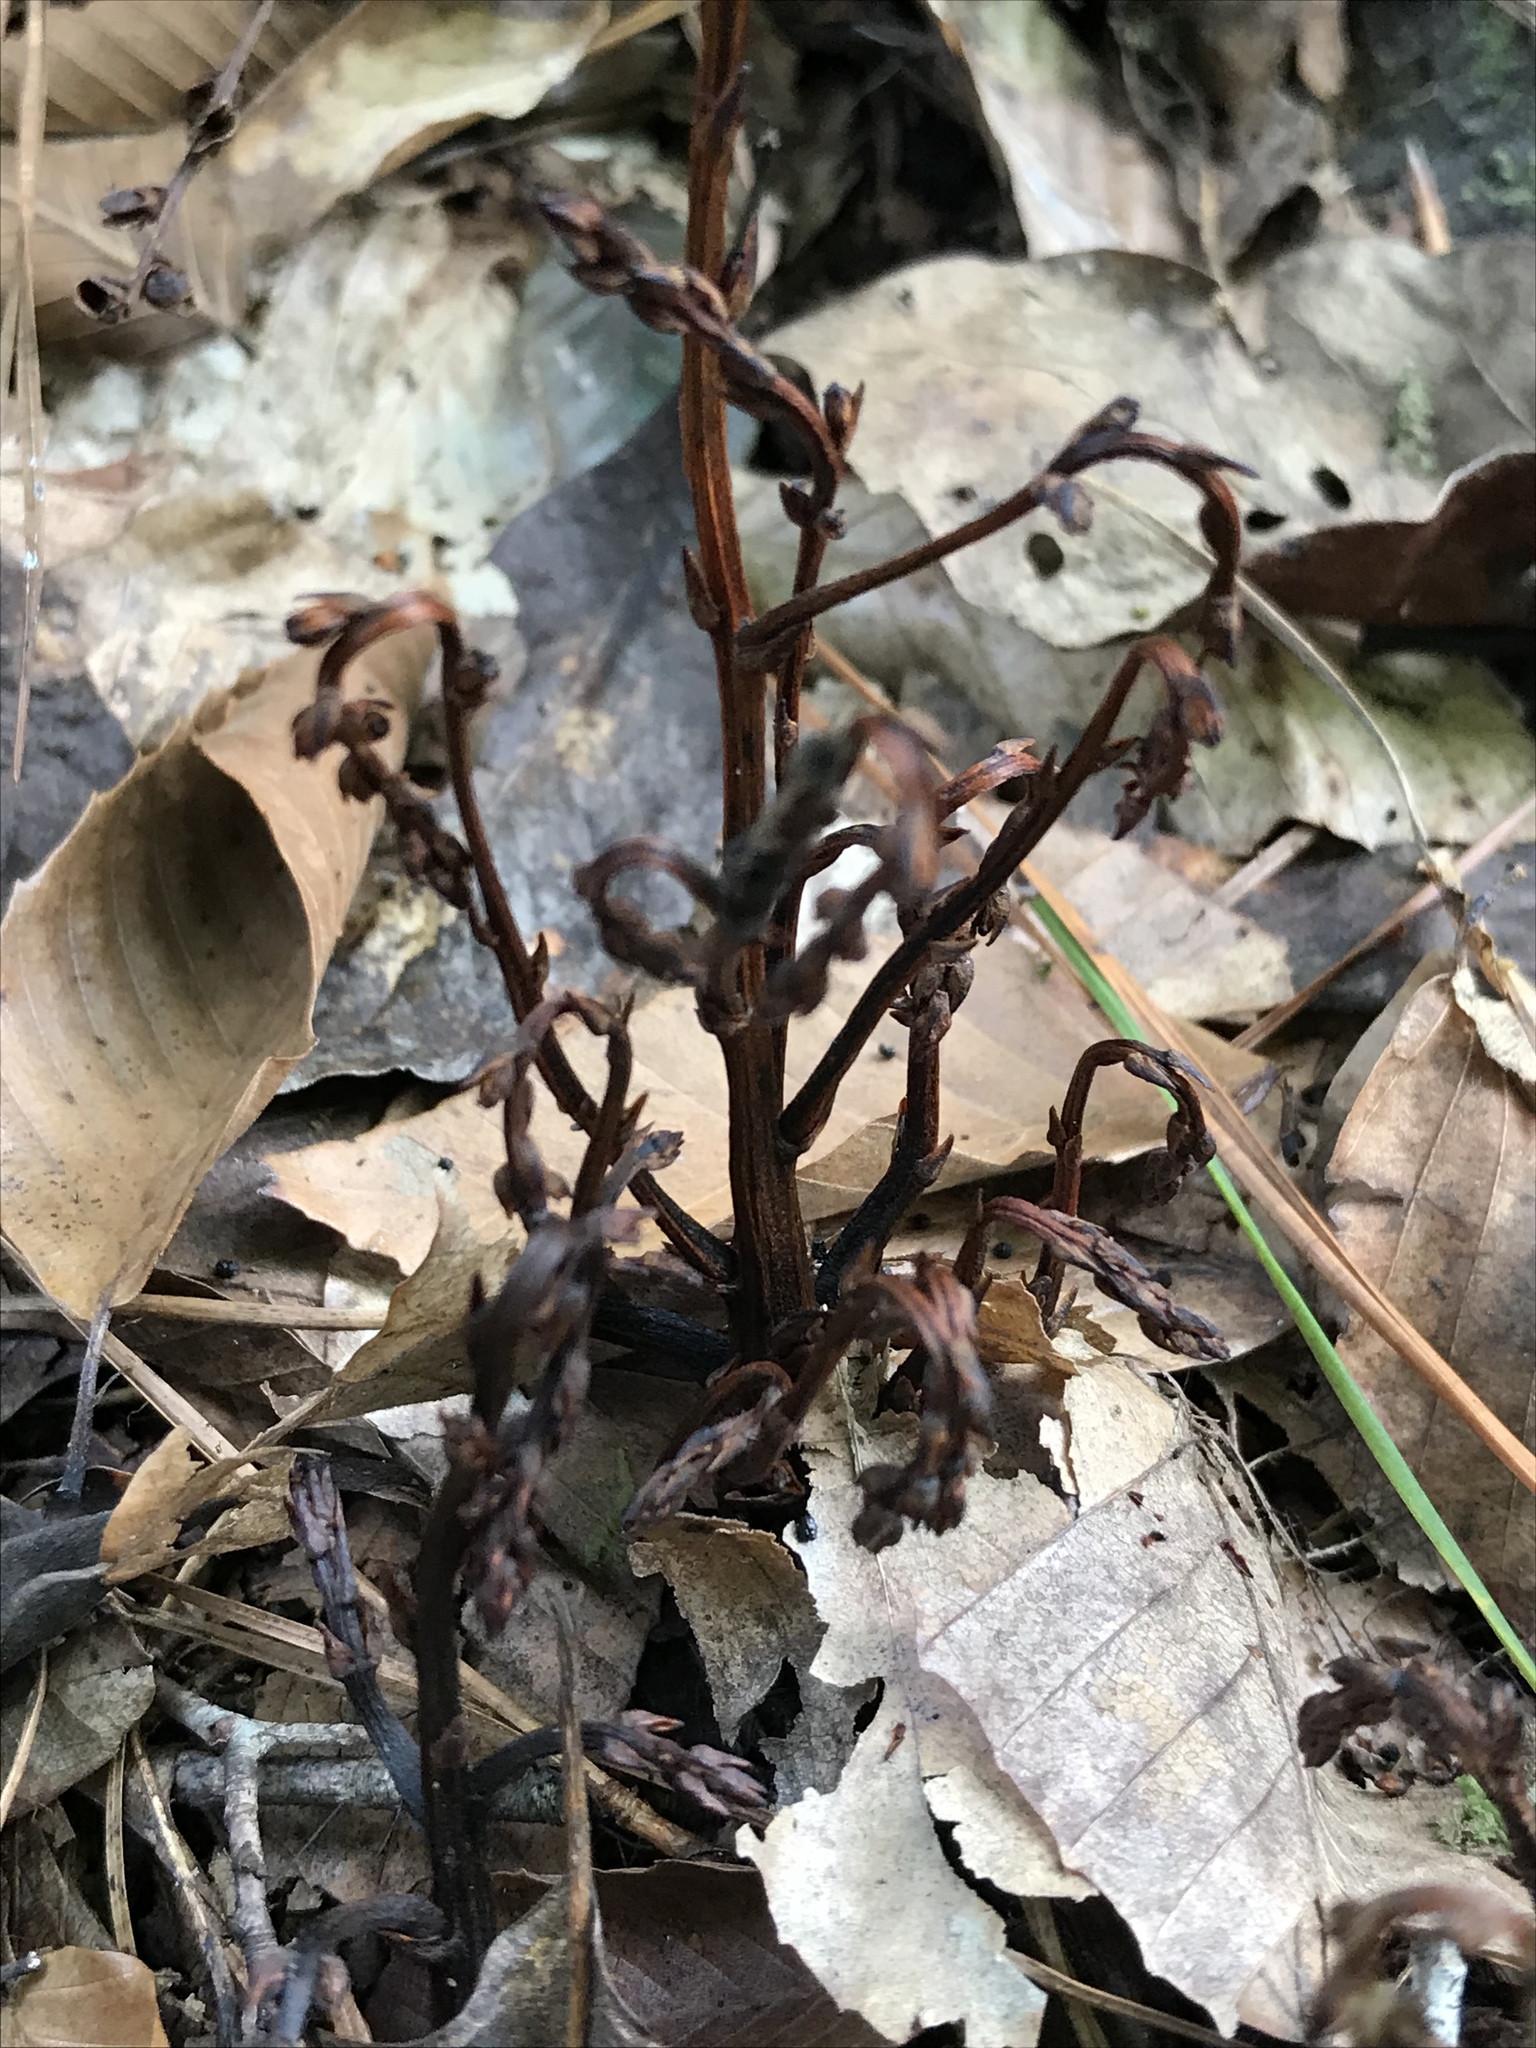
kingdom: Plantae
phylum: Tracheophyta
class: Magnoliopsida
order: Lamiales
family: Orobanchaceae
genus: Epifagus
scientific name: Epifagus virginiana
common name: Beechdrops
